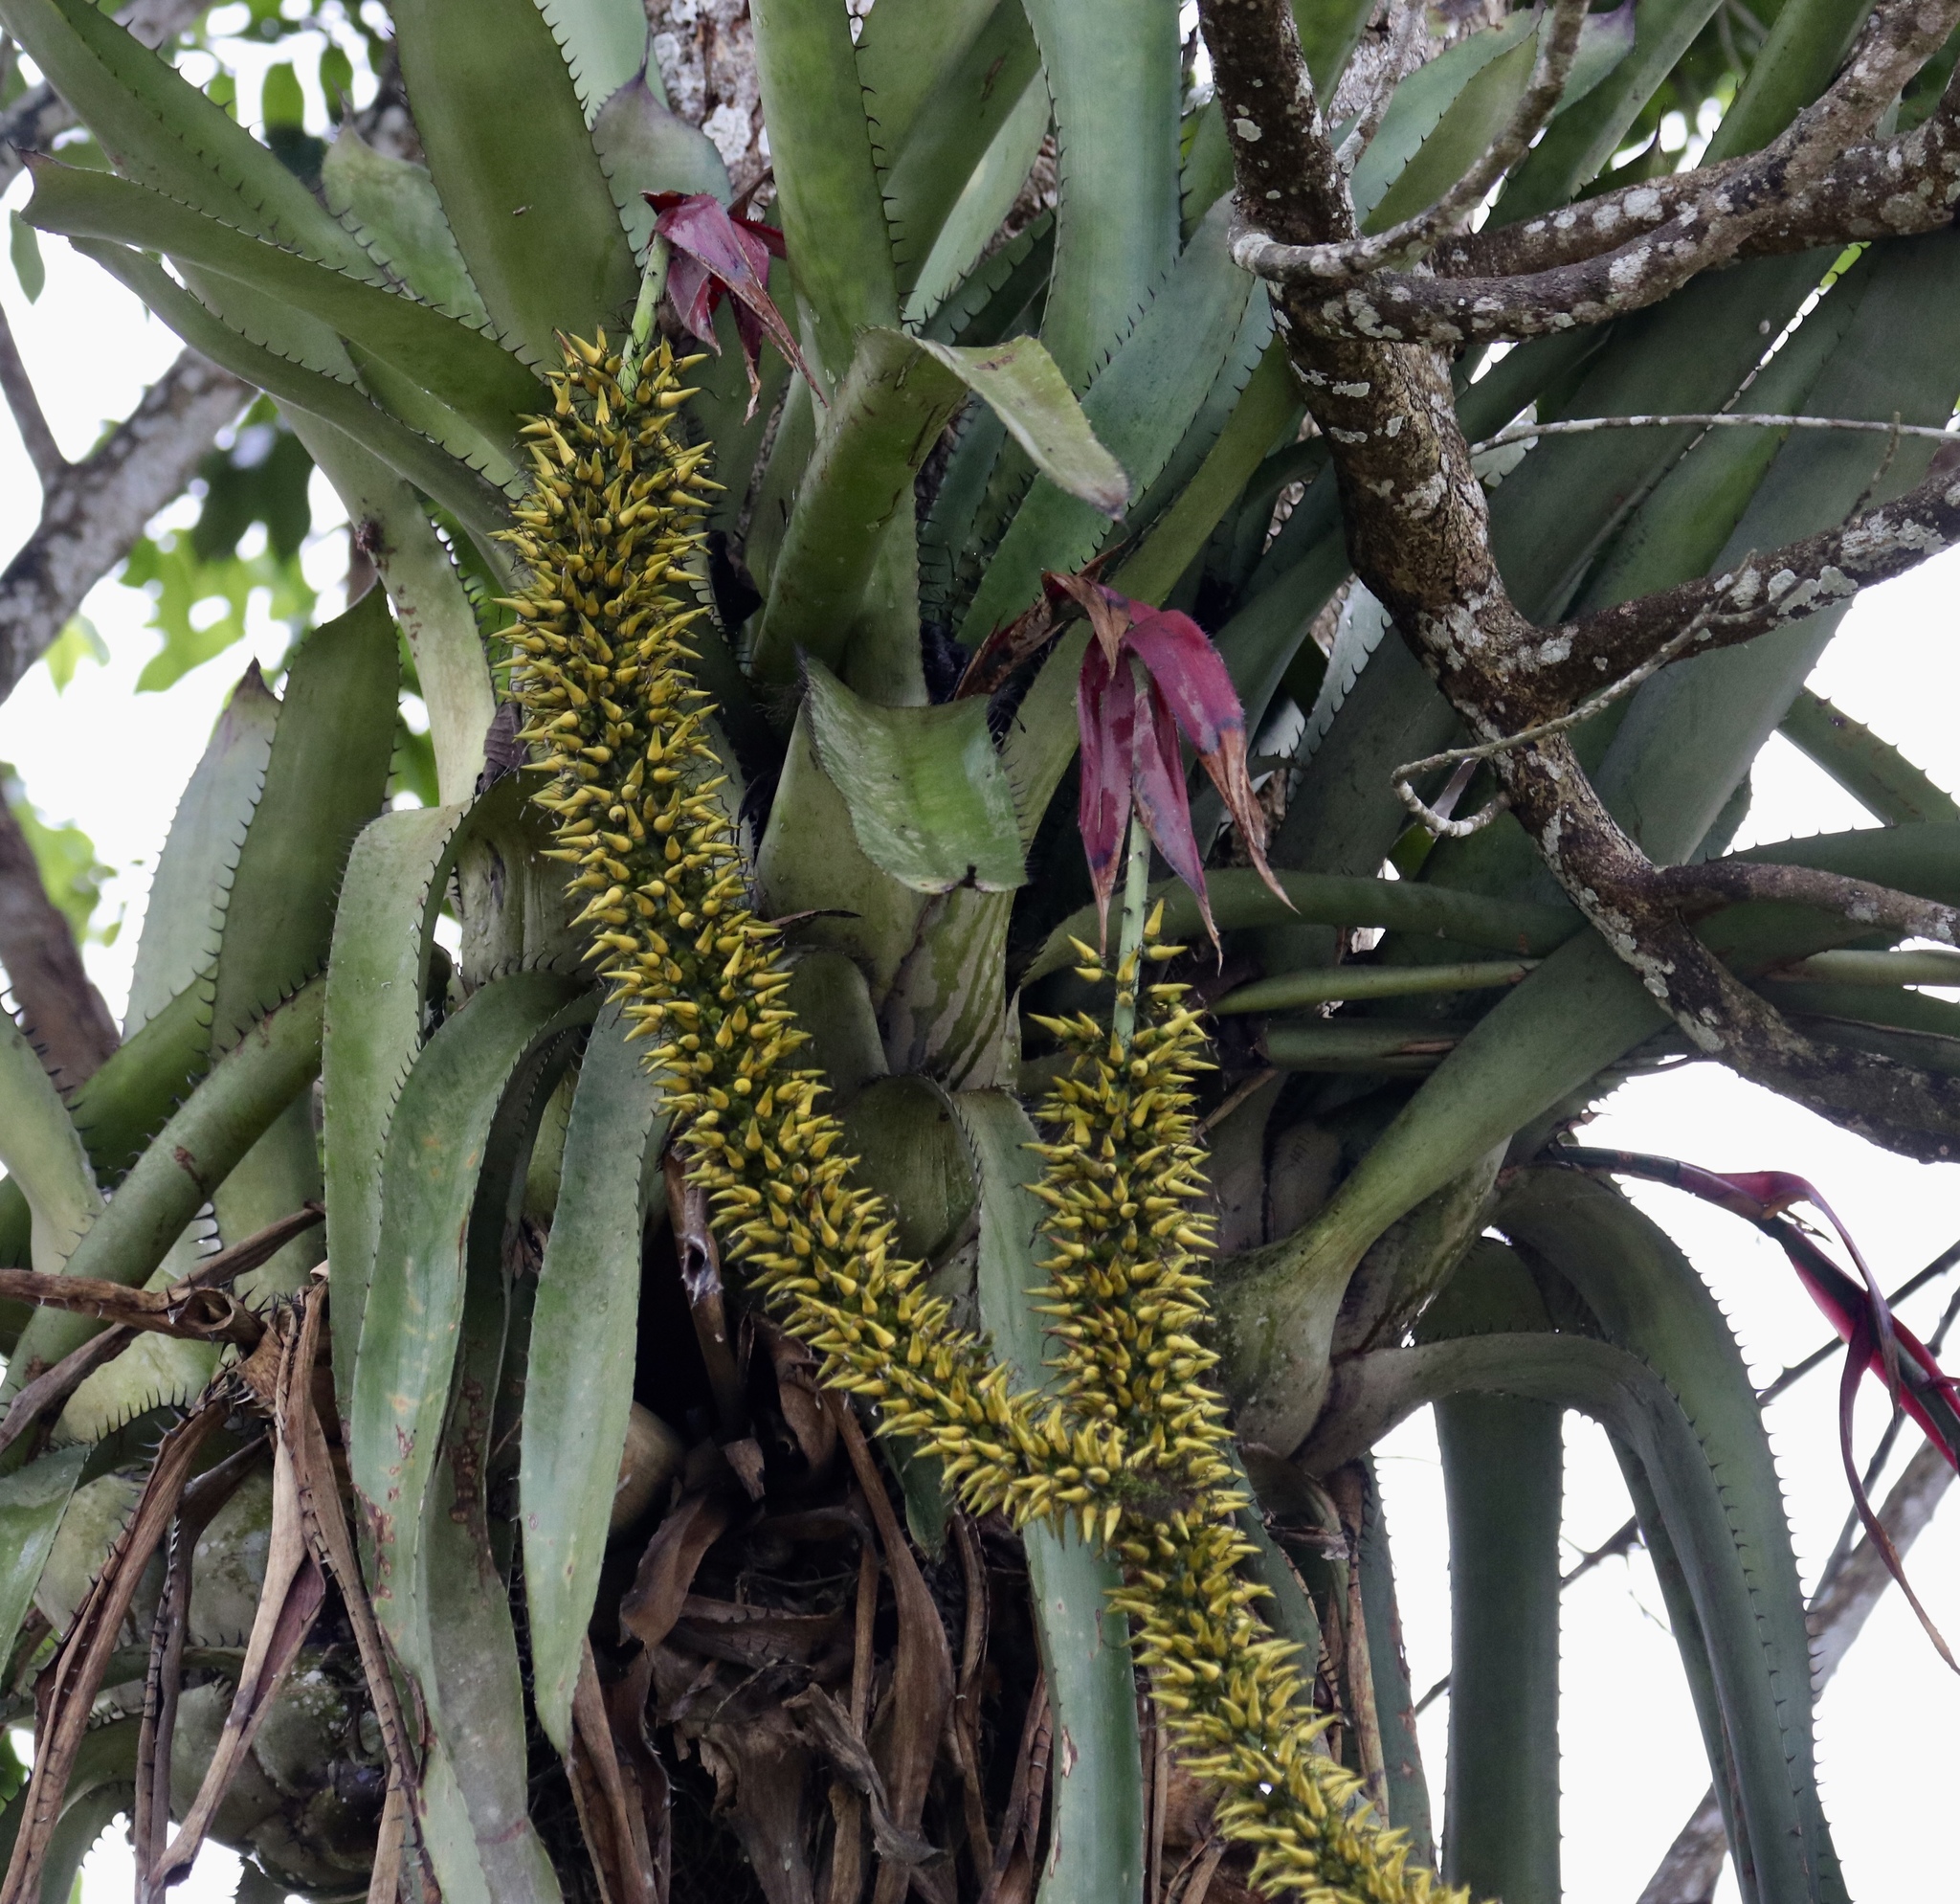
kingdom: Plantae
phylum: Tracheophyta
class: Liliopsida
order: Poales
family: Bromeliaceae
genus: Aechmea
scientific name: Aechmea setigera
